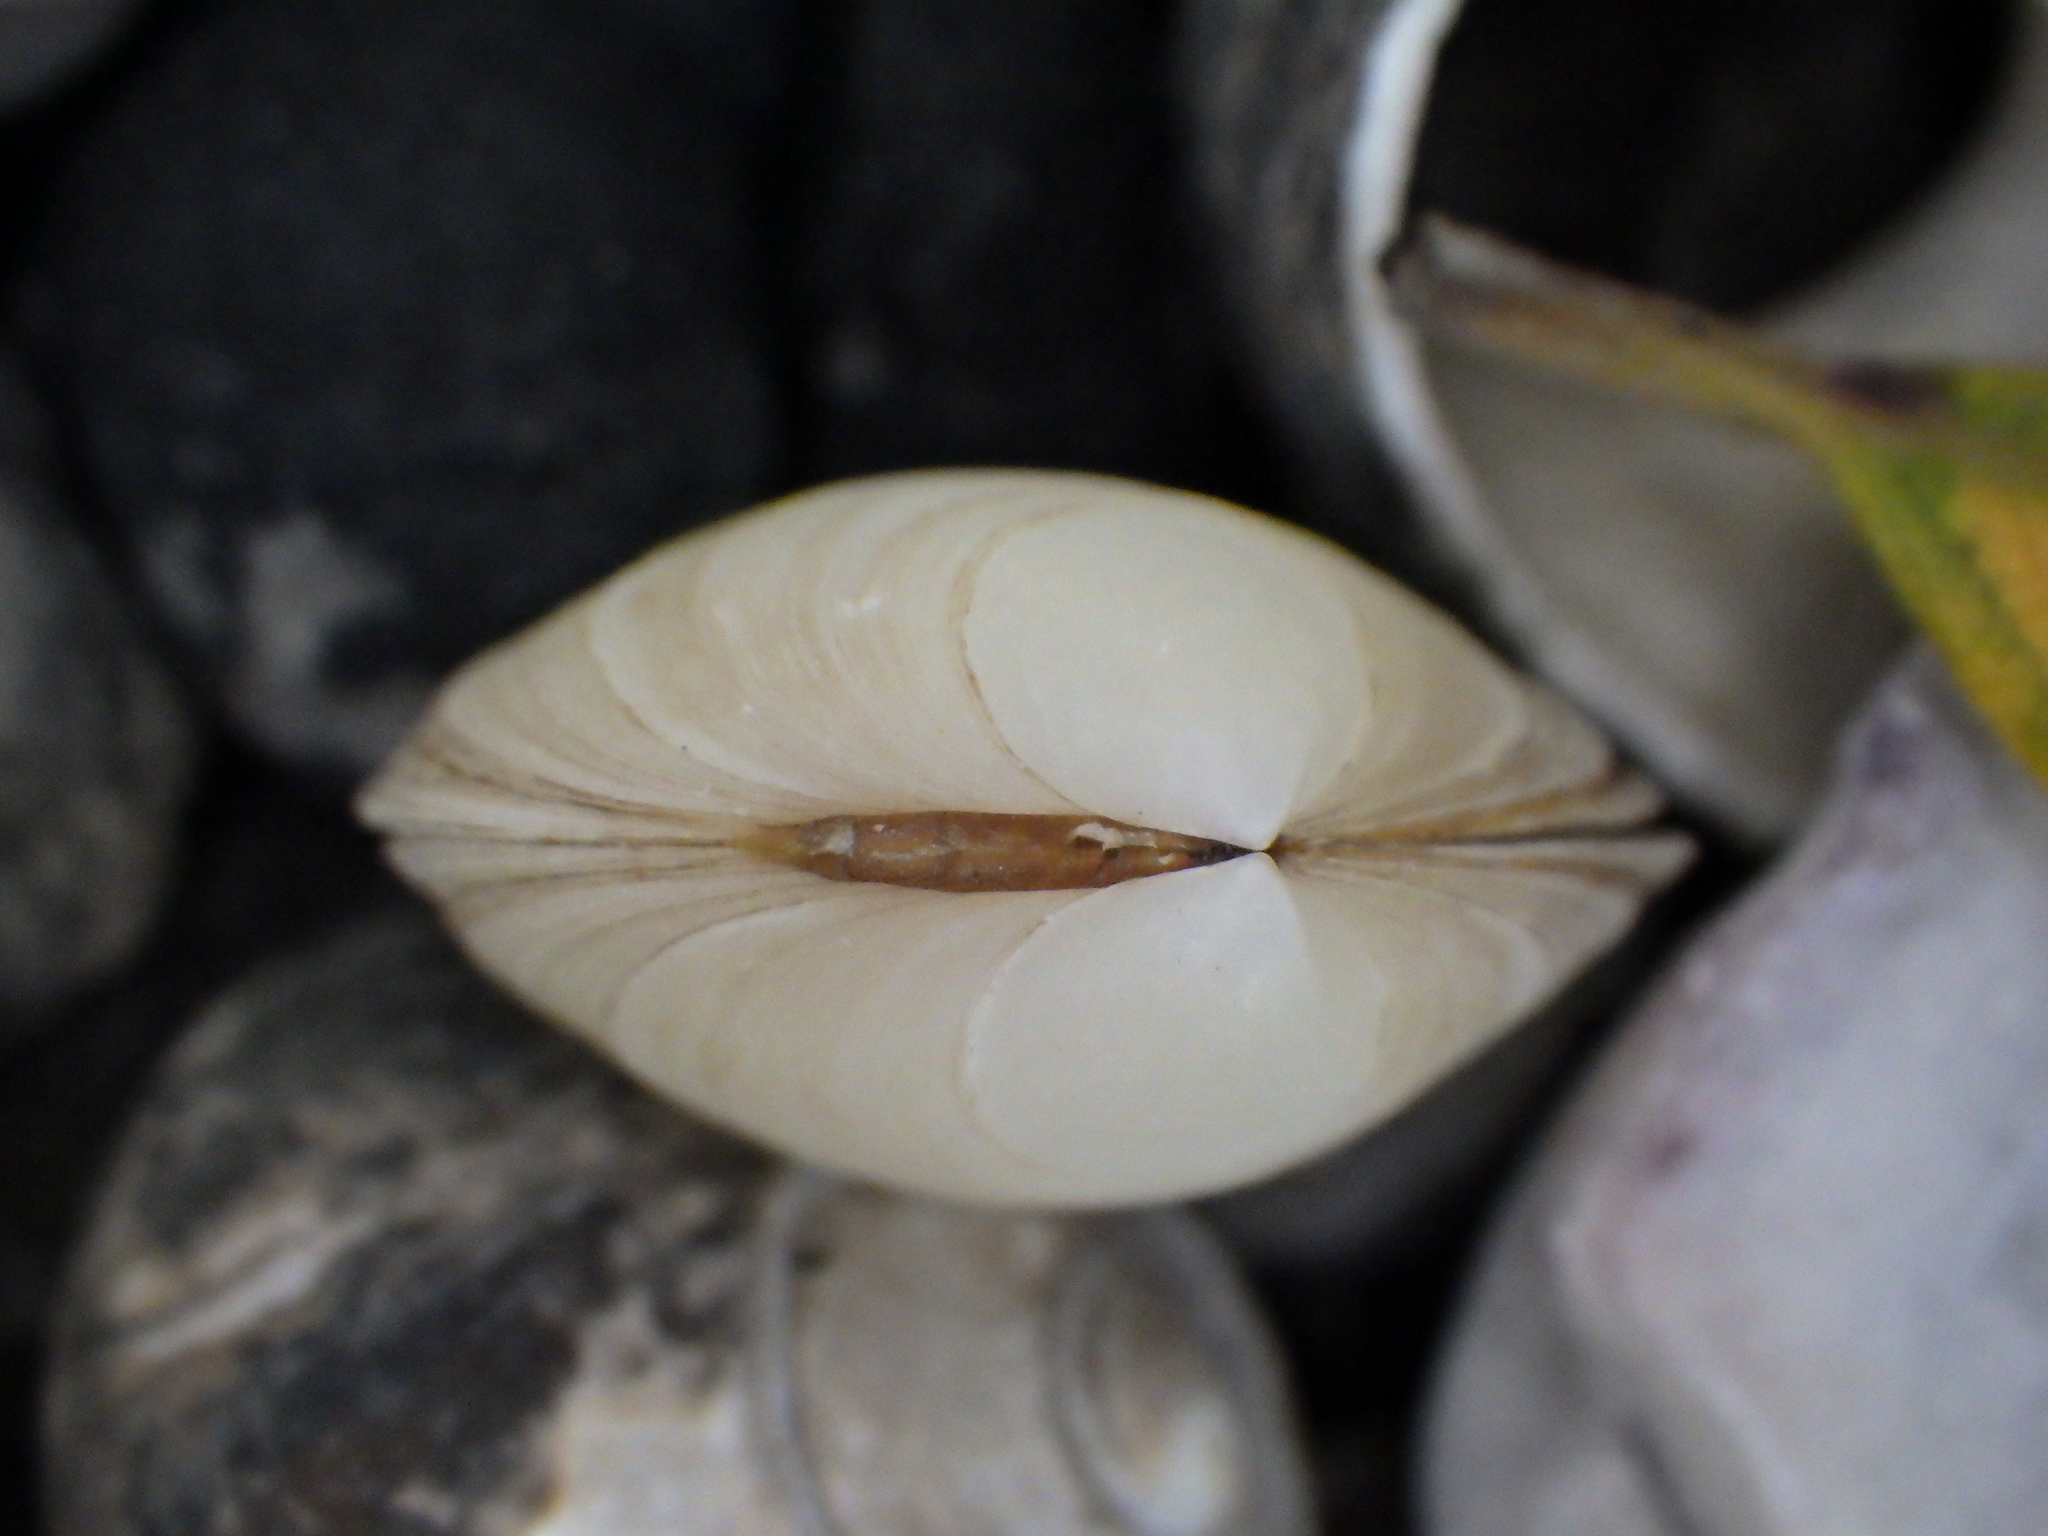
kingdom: Animalia
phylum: Mollusca
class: Bivalvia
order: Venerida
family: Ungulinidae
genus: Zemysia
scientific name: Zemysia zelandica
